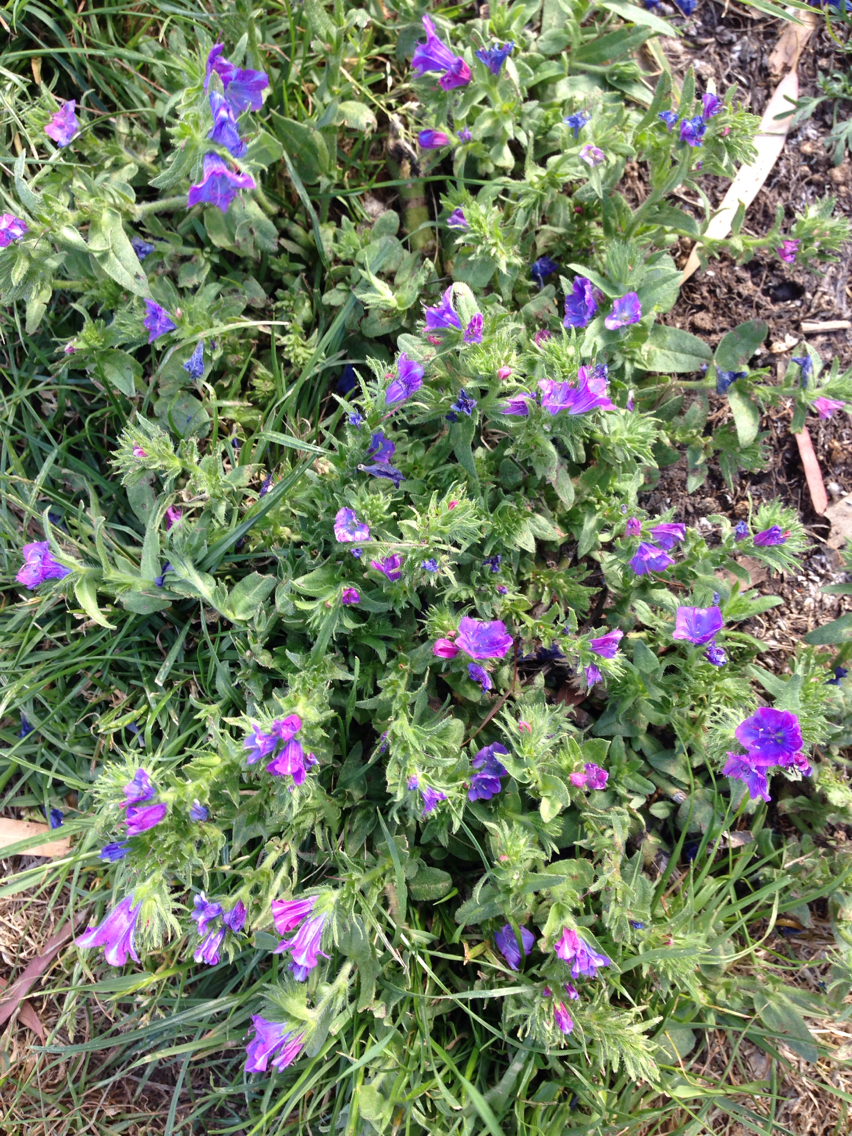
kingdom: Plantae
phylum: Tracheophyta
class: Magnoliopsida
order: Boraginales
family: Boraginaceae
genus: Echium
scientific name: Echium plantagineum
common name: Purple viper's-bugloss
